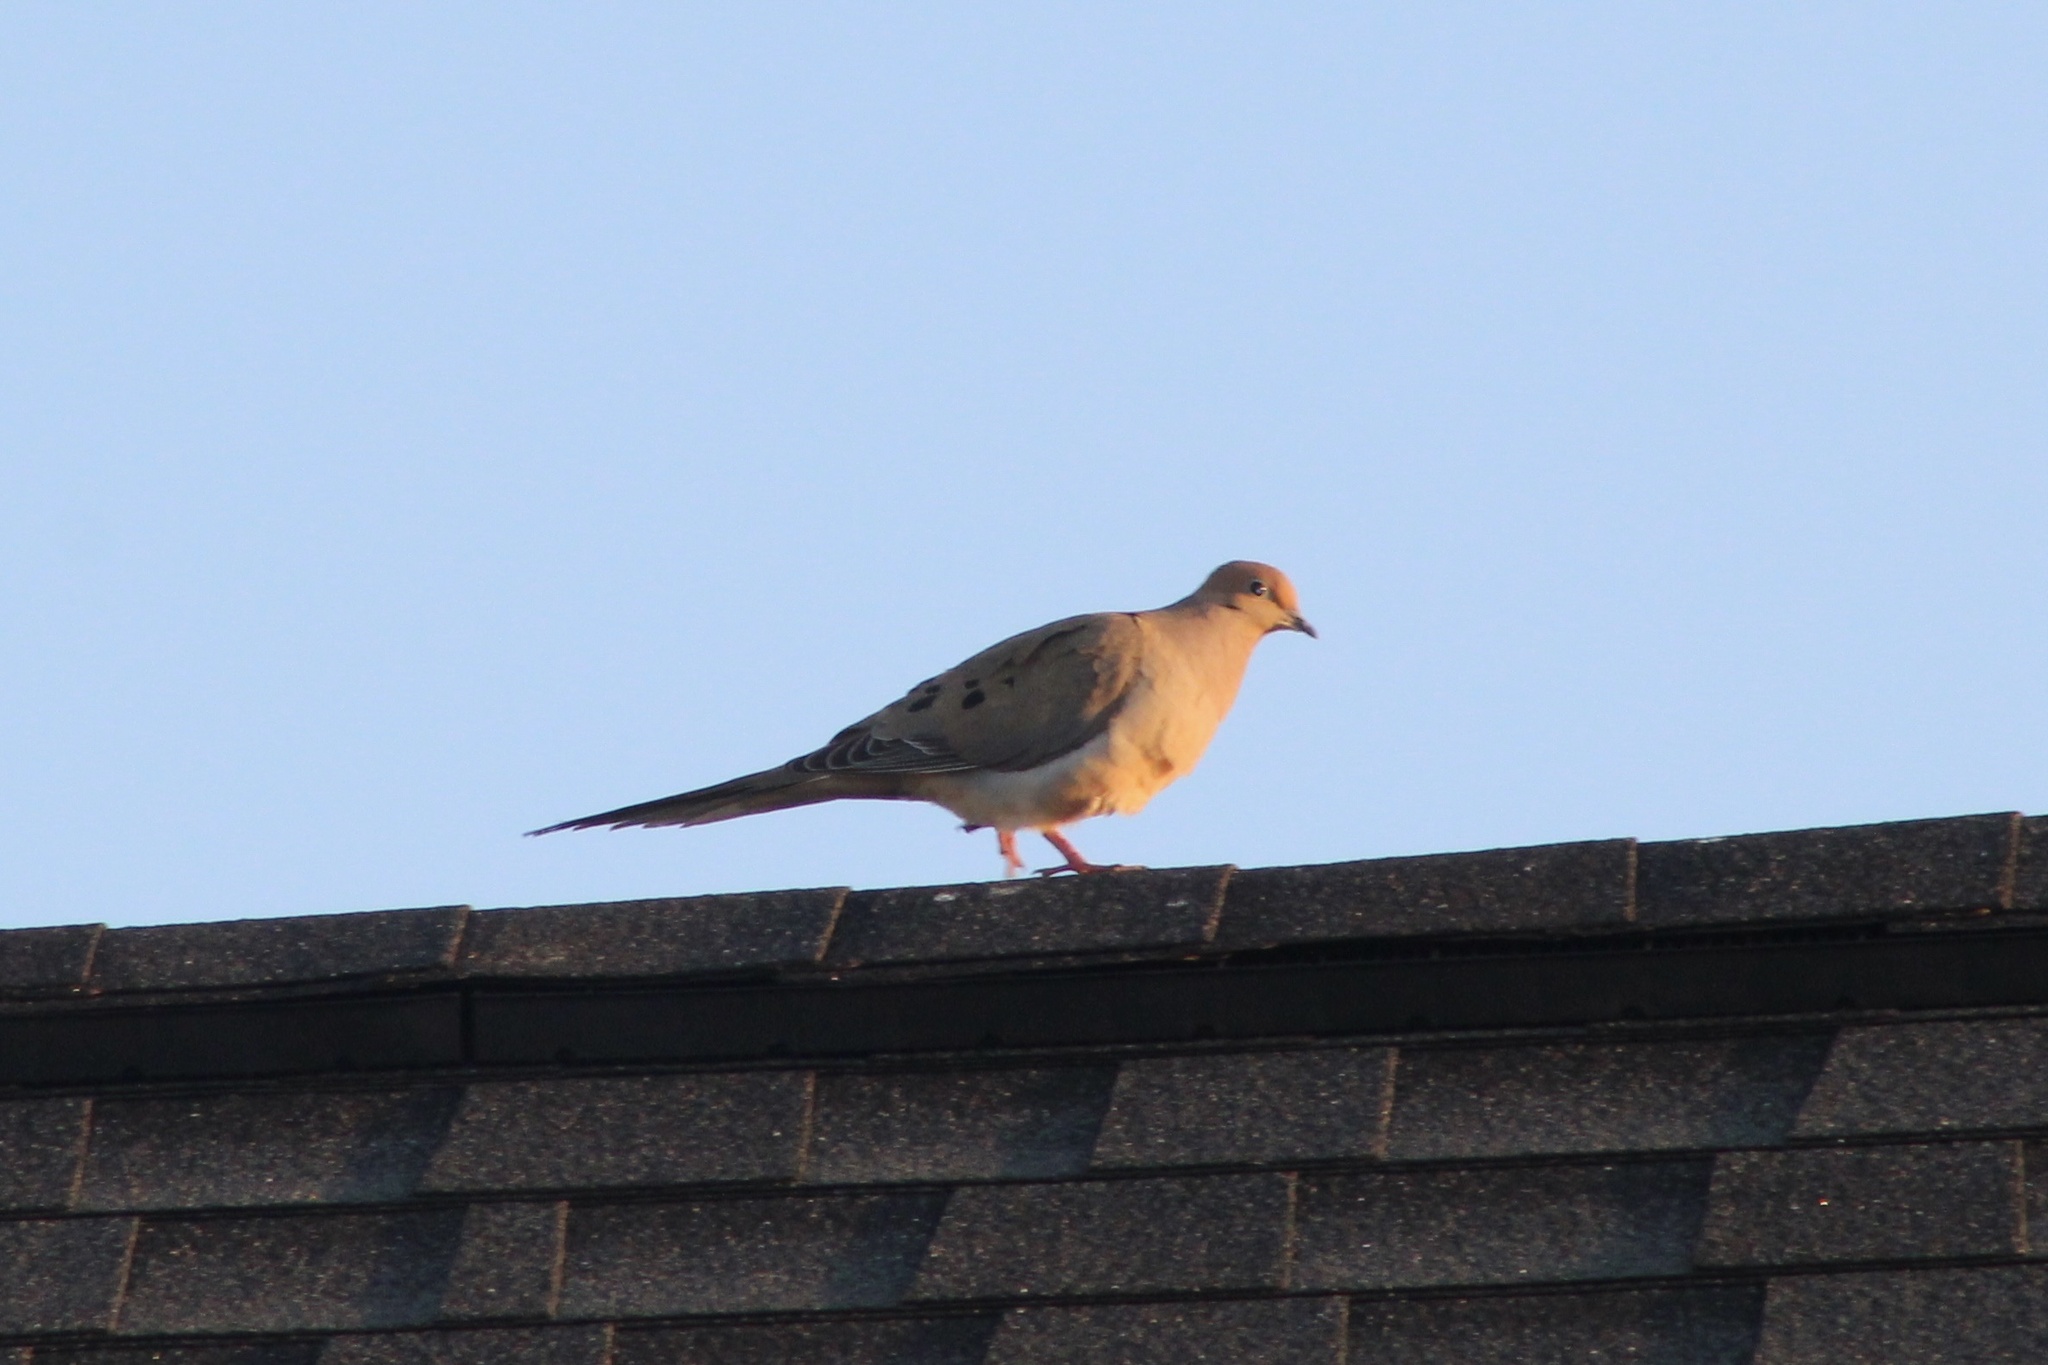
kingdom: Animalia
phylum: Chordata
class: Aves
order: Columbiformes
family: Columbidae
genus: Zenaida
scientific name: Zenaida macroura
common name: Mourning dove
